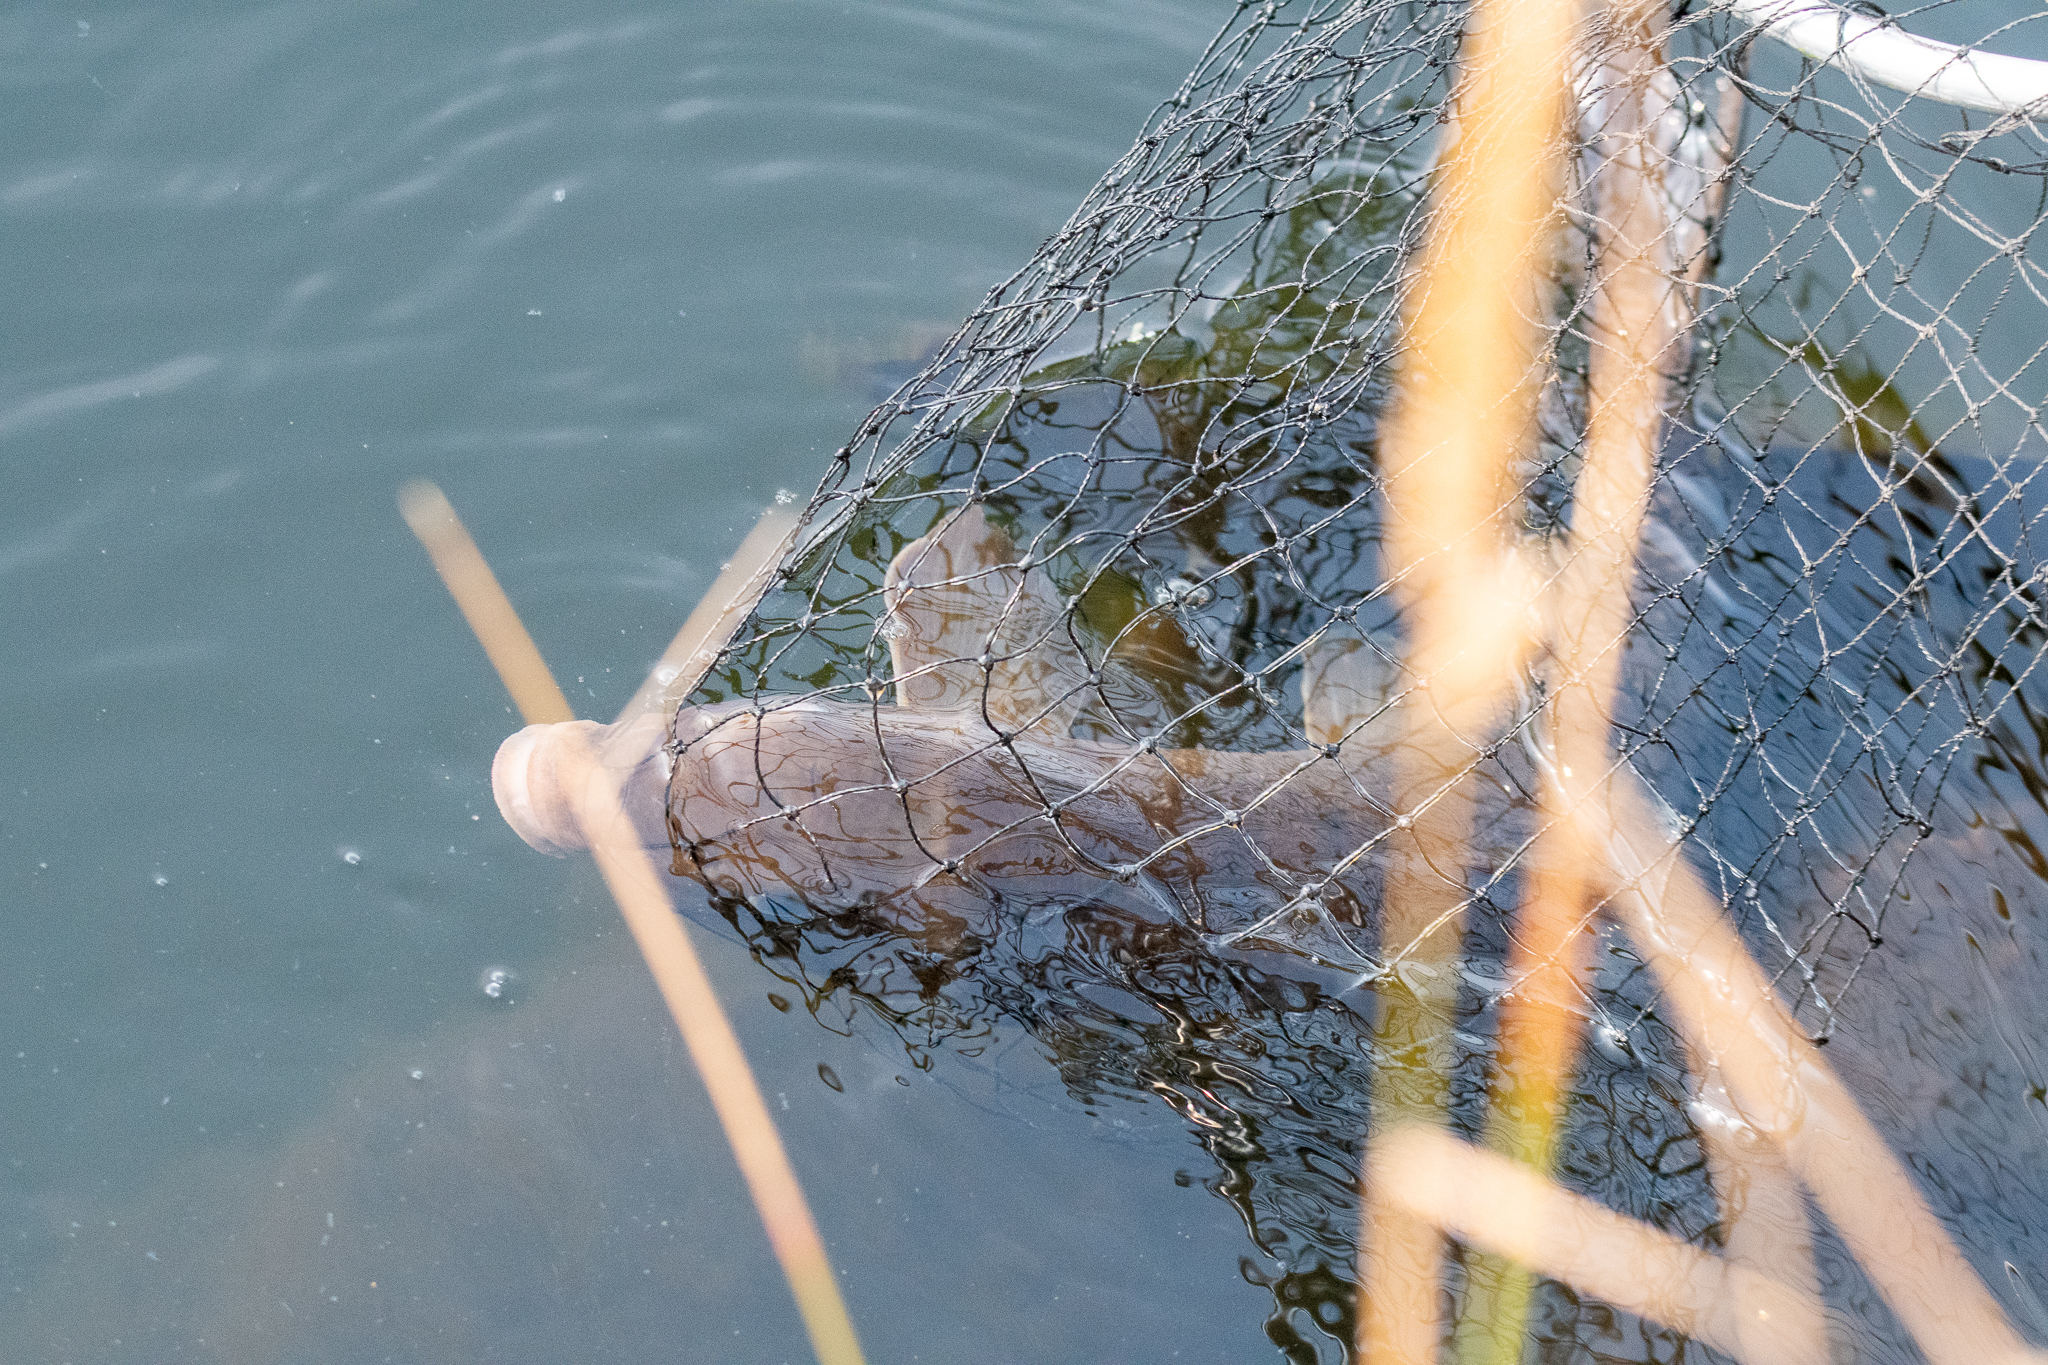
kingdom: Animalia
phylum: Chordata
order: Cypriniformes
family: Catostomidae
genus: Catostomus
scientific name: Catostomus commersonii
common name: White sucker
